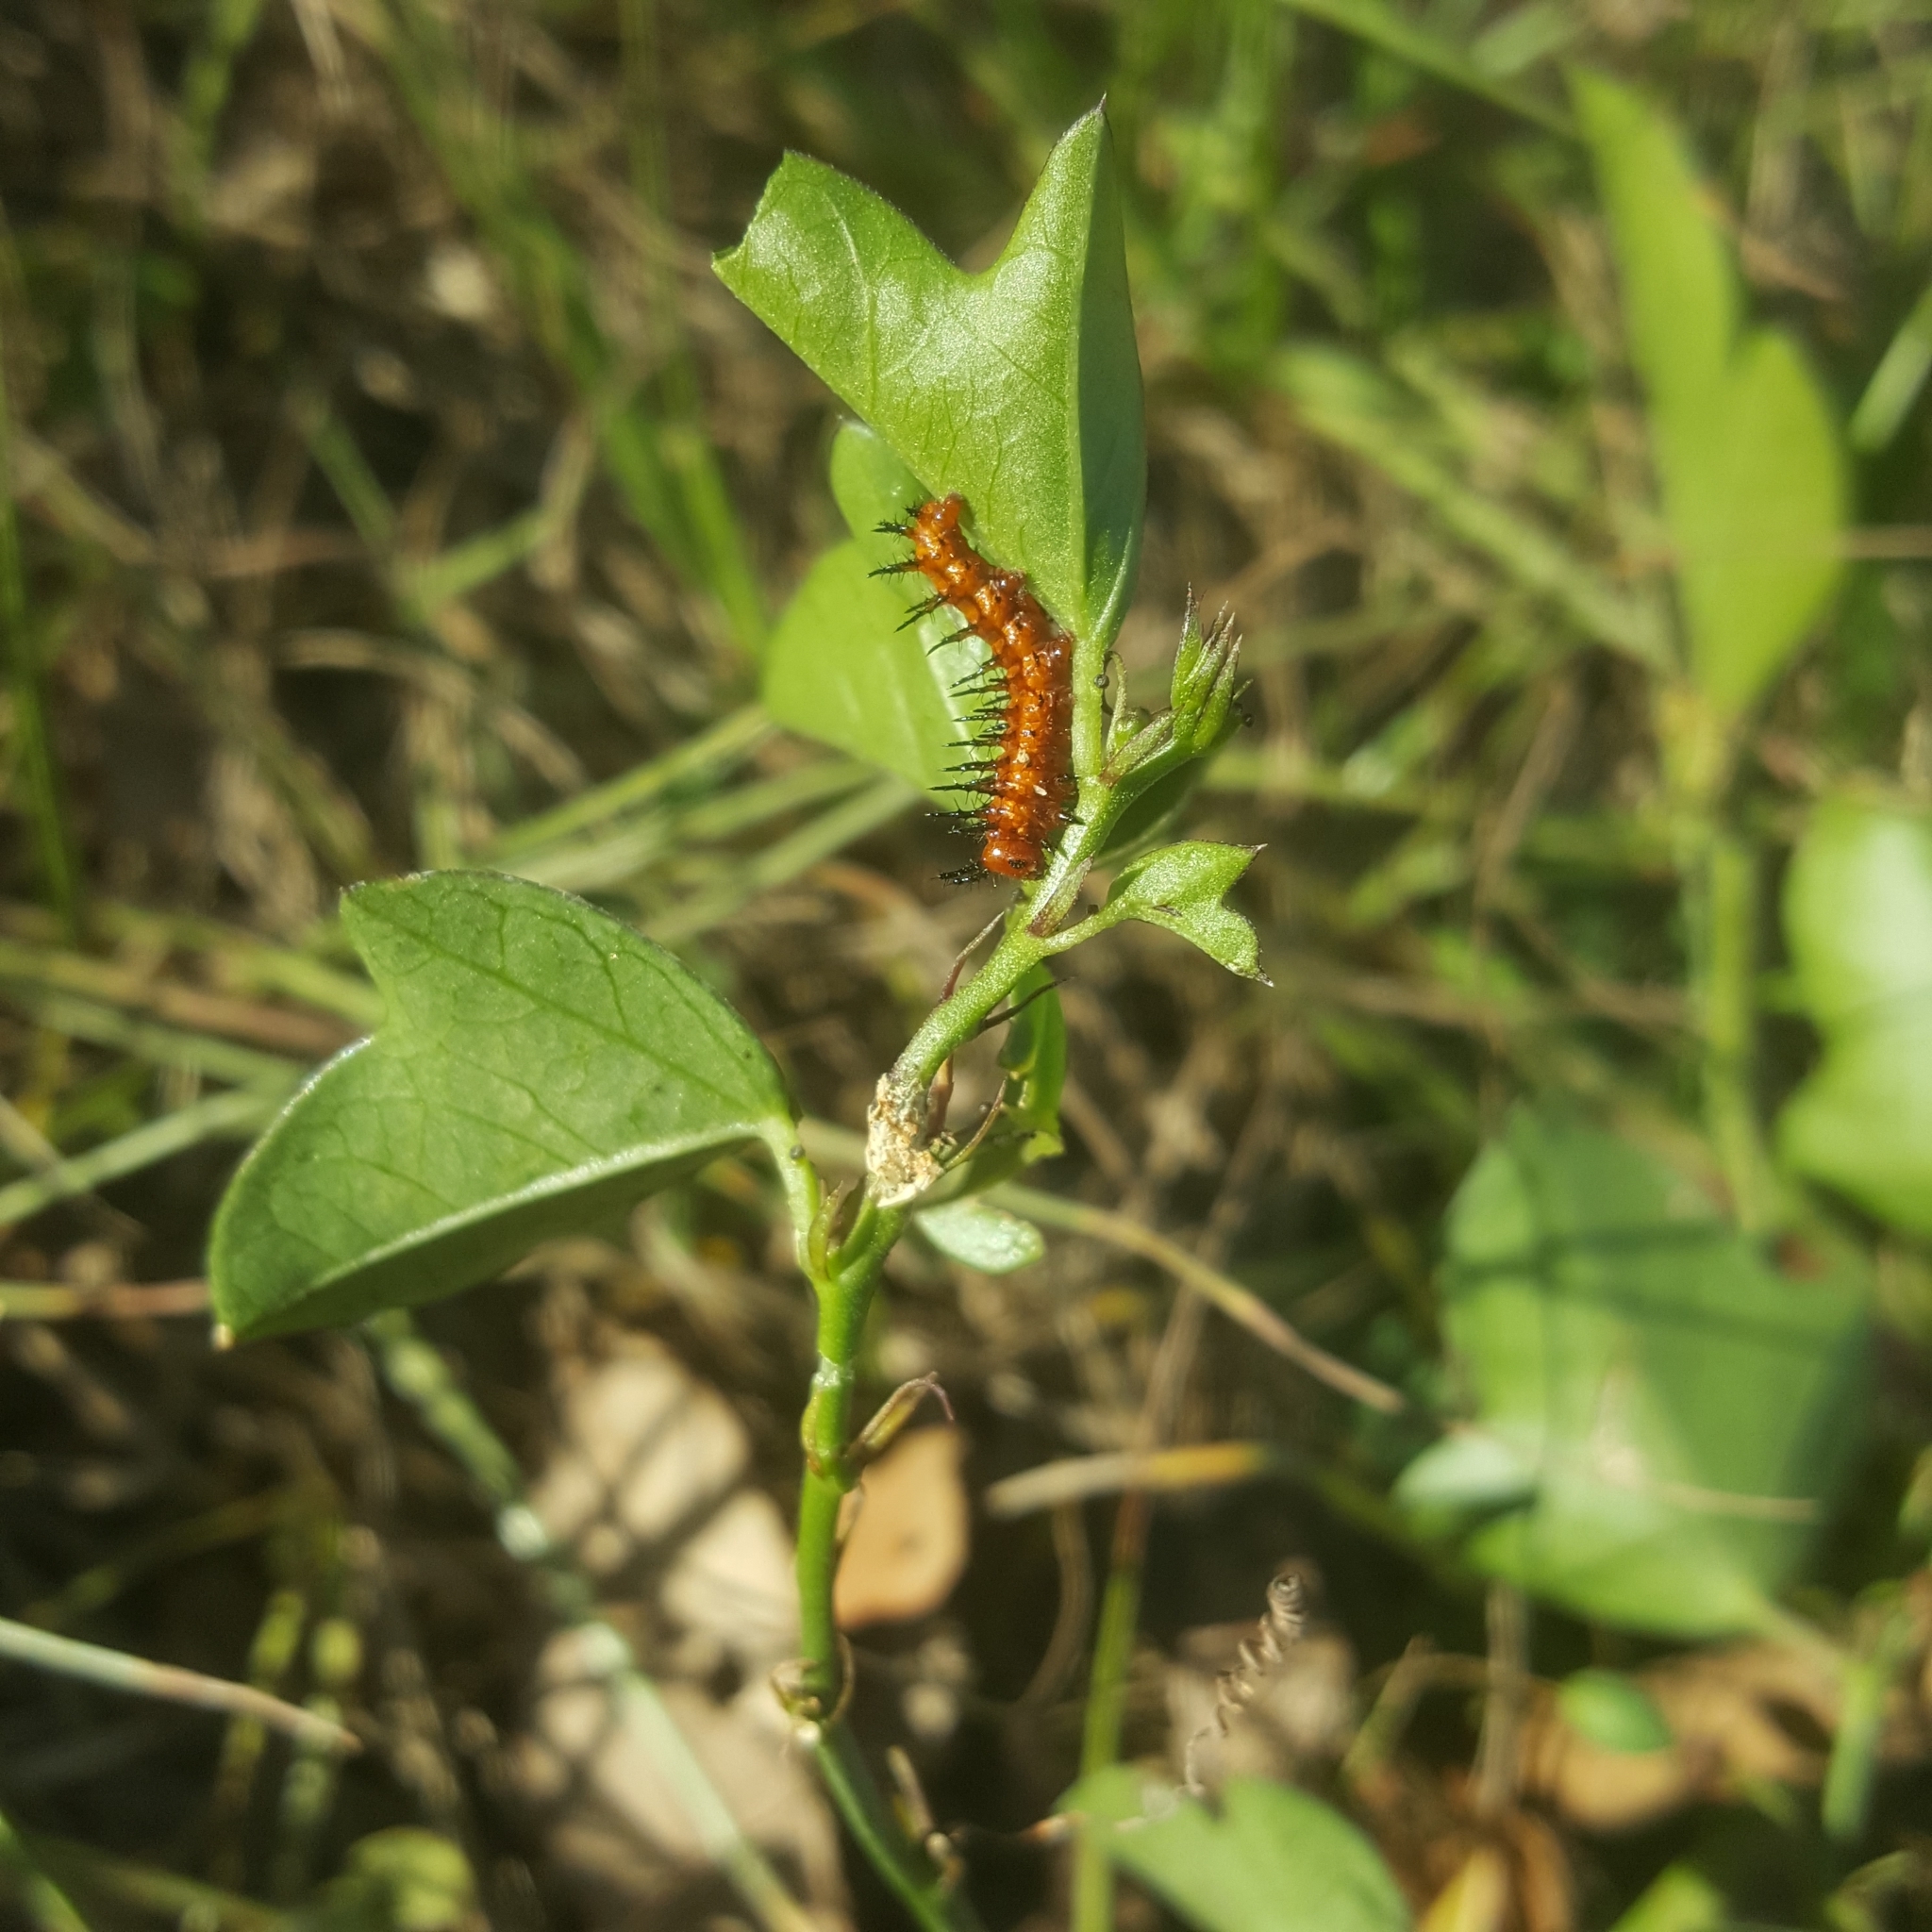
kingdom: Animalia
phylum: Arthropoda
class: Insecta
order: Lepidoptera
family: Nymphalidae
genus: Dione
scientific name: Dione vanillae
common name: Gulf fritillary
